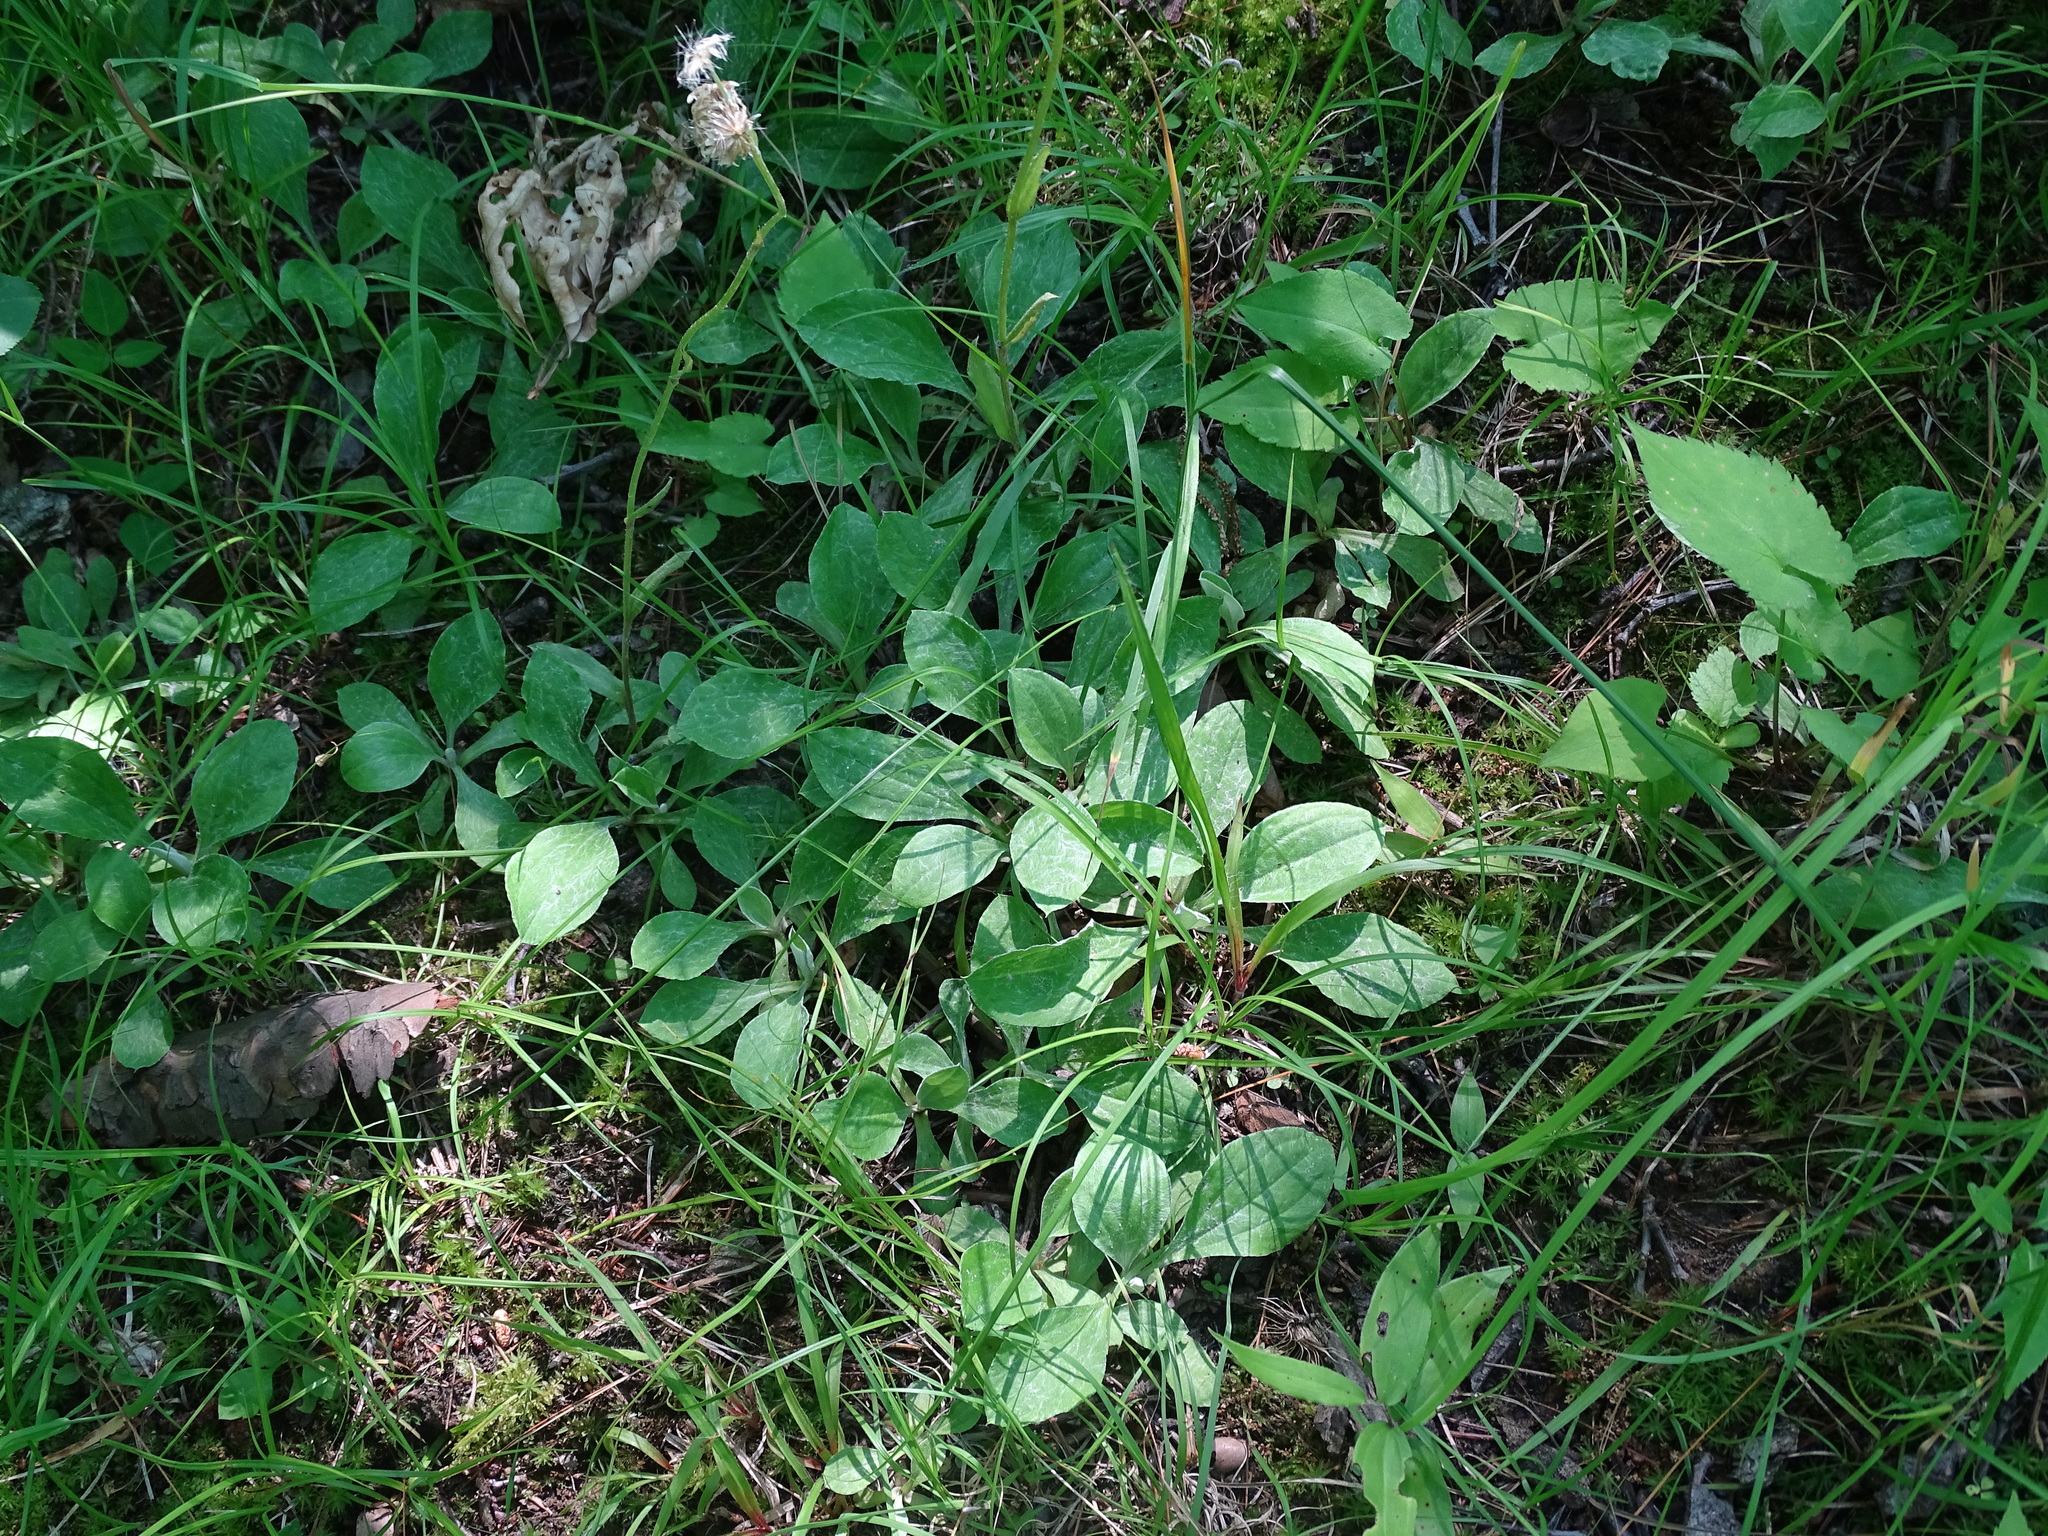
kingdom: Plantae
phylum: Tracheophyta
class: Magnoliopsida
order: Asterales
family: Asteraceae
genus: Antennaria
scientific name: Antennaria parlinii
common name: Parlin's pussytoes
